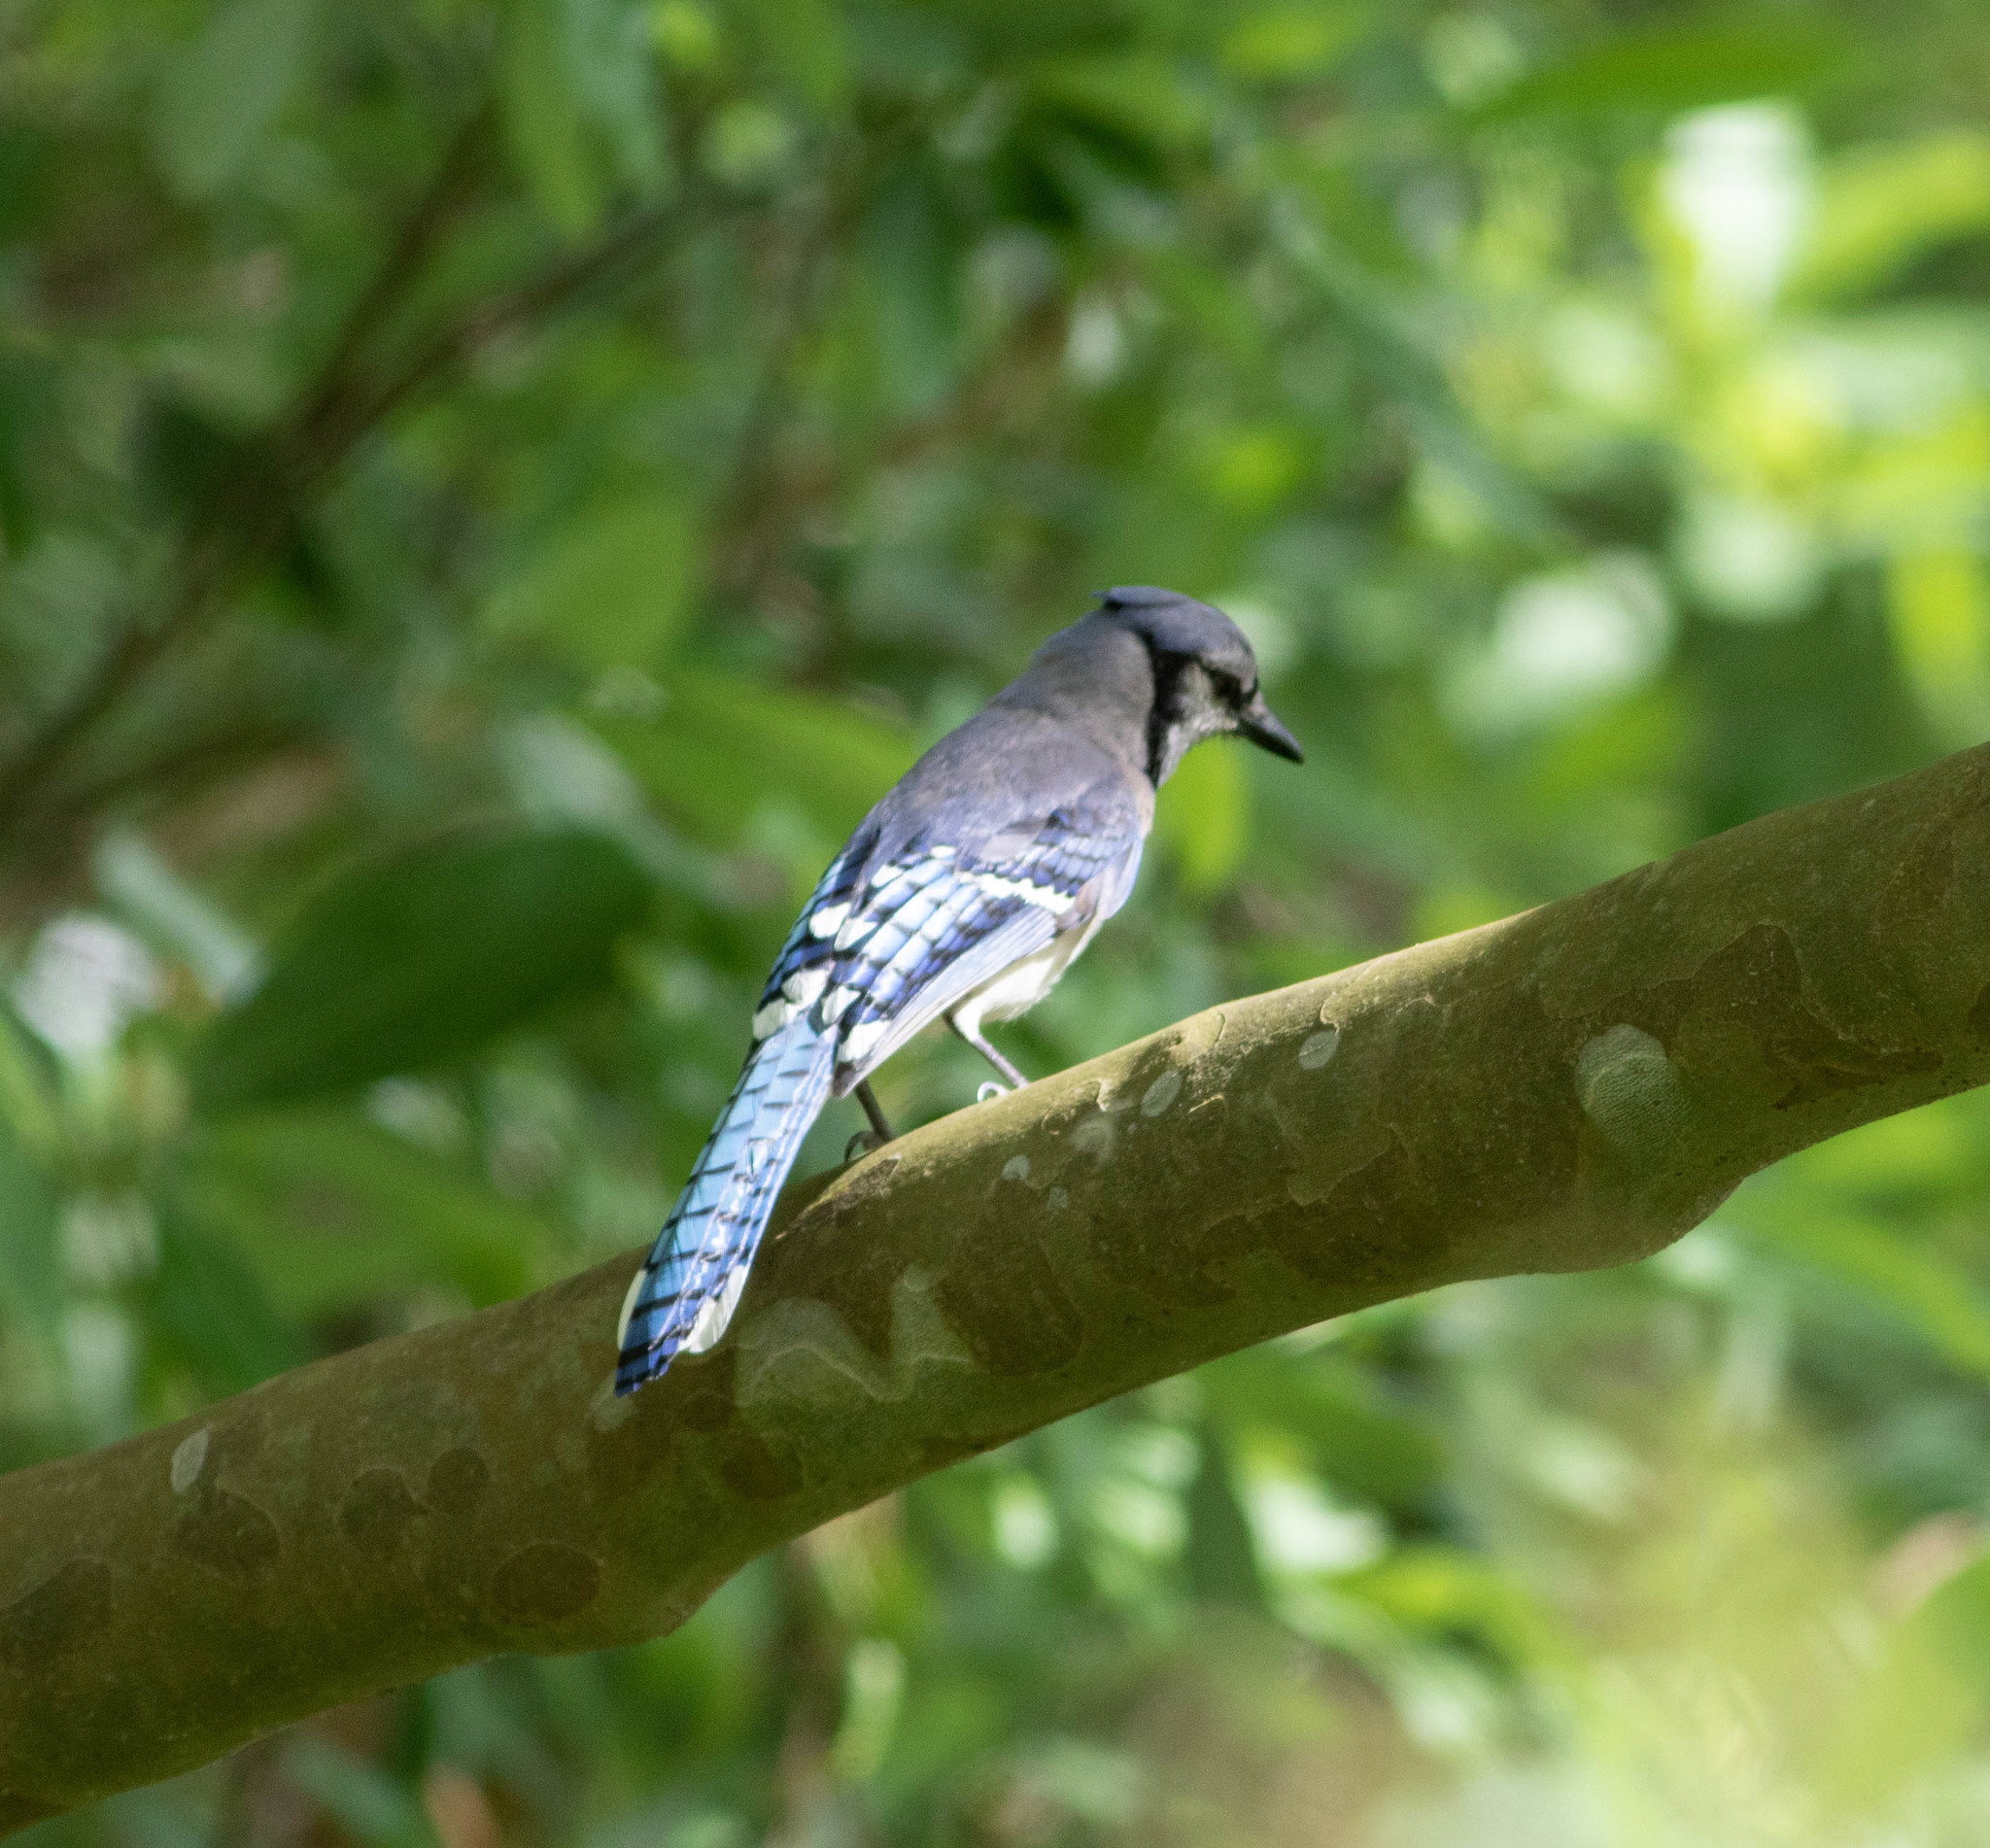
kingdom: Animalia
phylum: Chordata
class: Aves
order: Passeriformes
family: Corvidae
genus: Cyanocitta
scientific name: Cyanocitta cristata
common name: Blue jay
